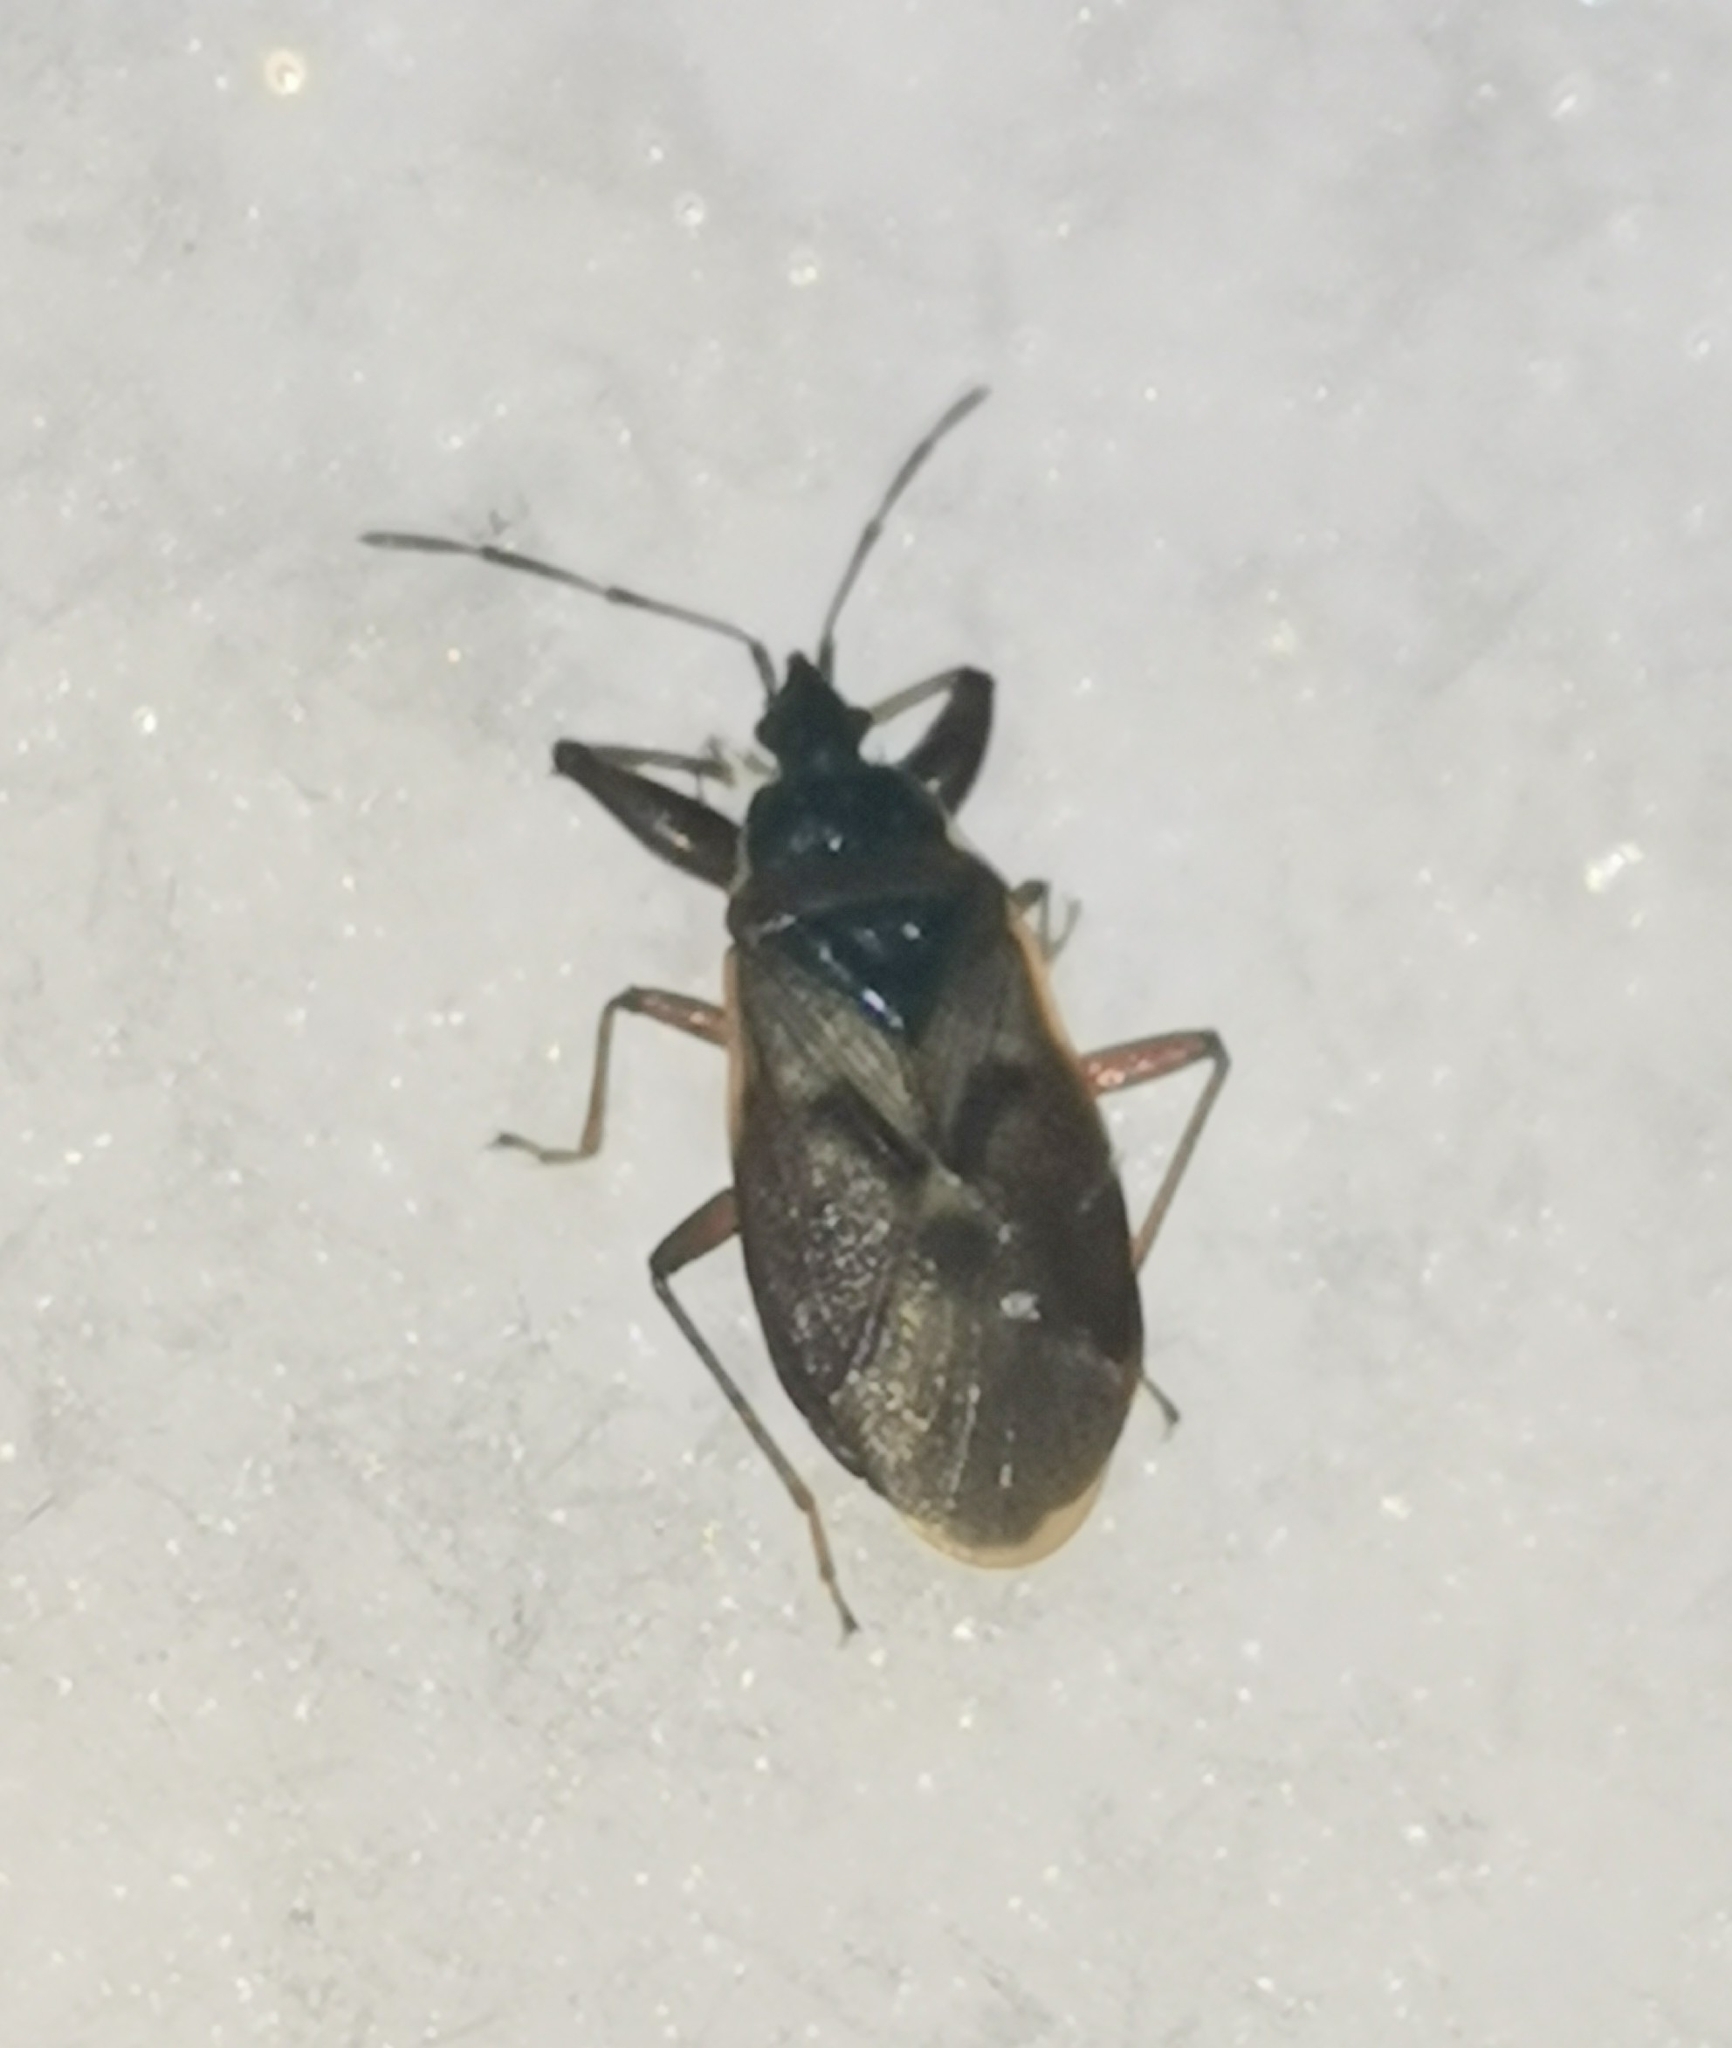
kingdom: Animalia
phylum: Arthropoda
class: Insecta
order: Hemiptera
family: Rhyparochromidae
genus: Gastrodes
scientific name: Gastrodes abietum
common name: Spruce cone bug
